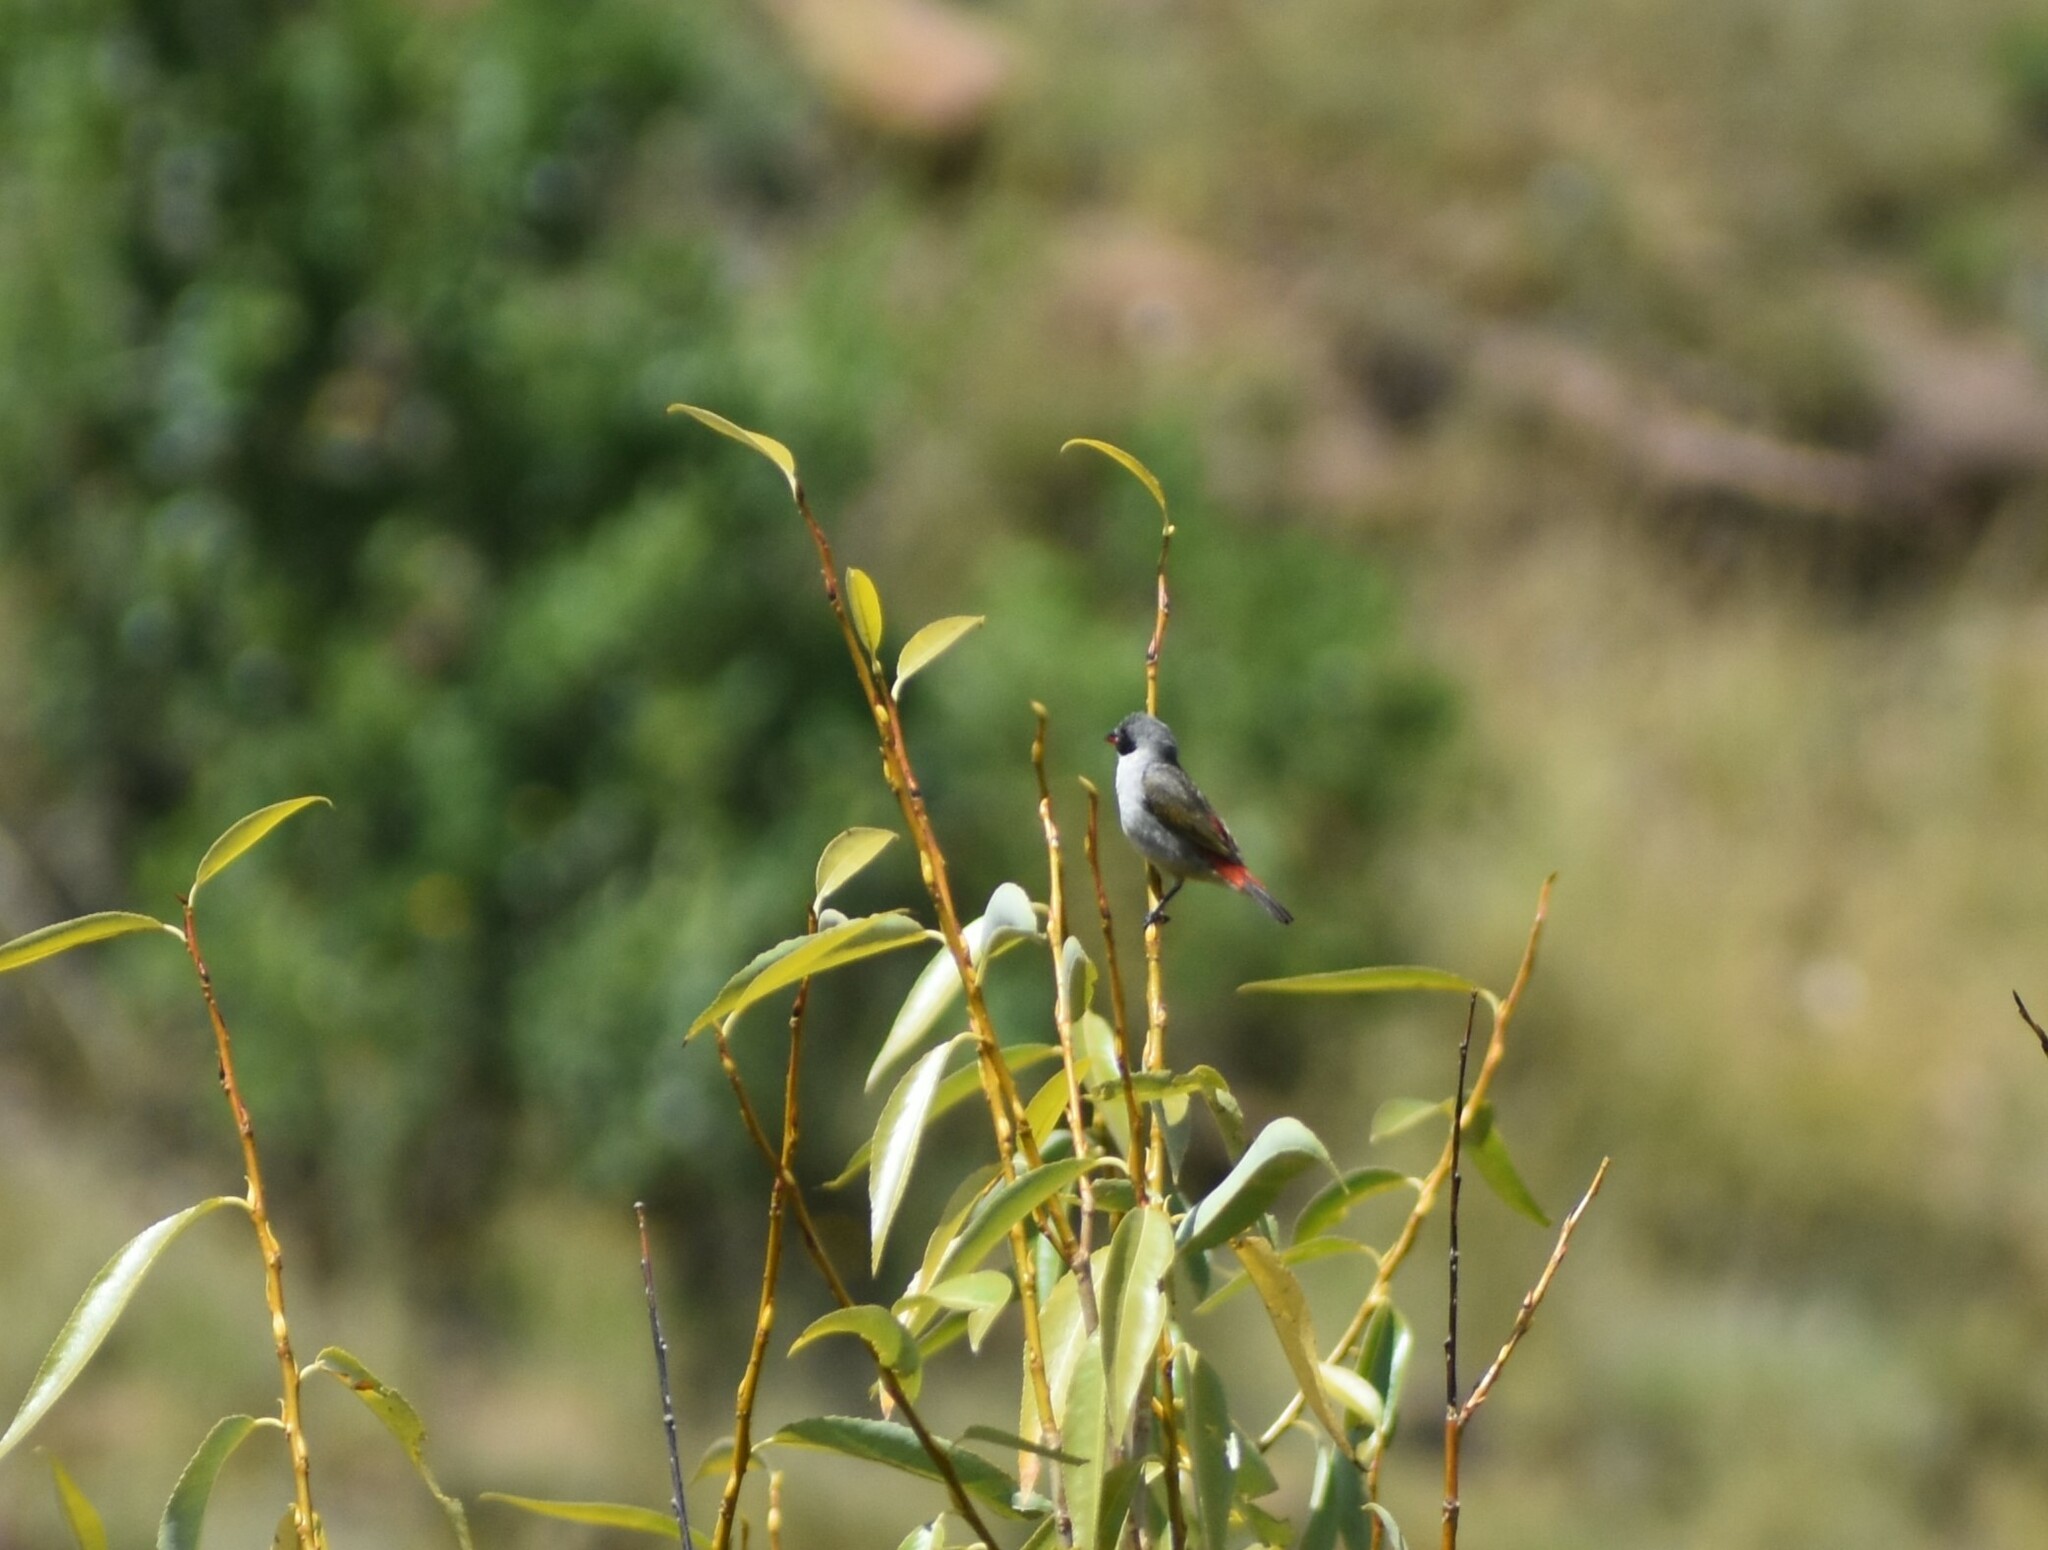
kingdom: Animalia
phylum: Chordata
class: Aves
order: Passeriformes
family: Estrildidae
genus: Coccopygia
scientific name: Coccopygia melanotis
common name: Swee waxbill
